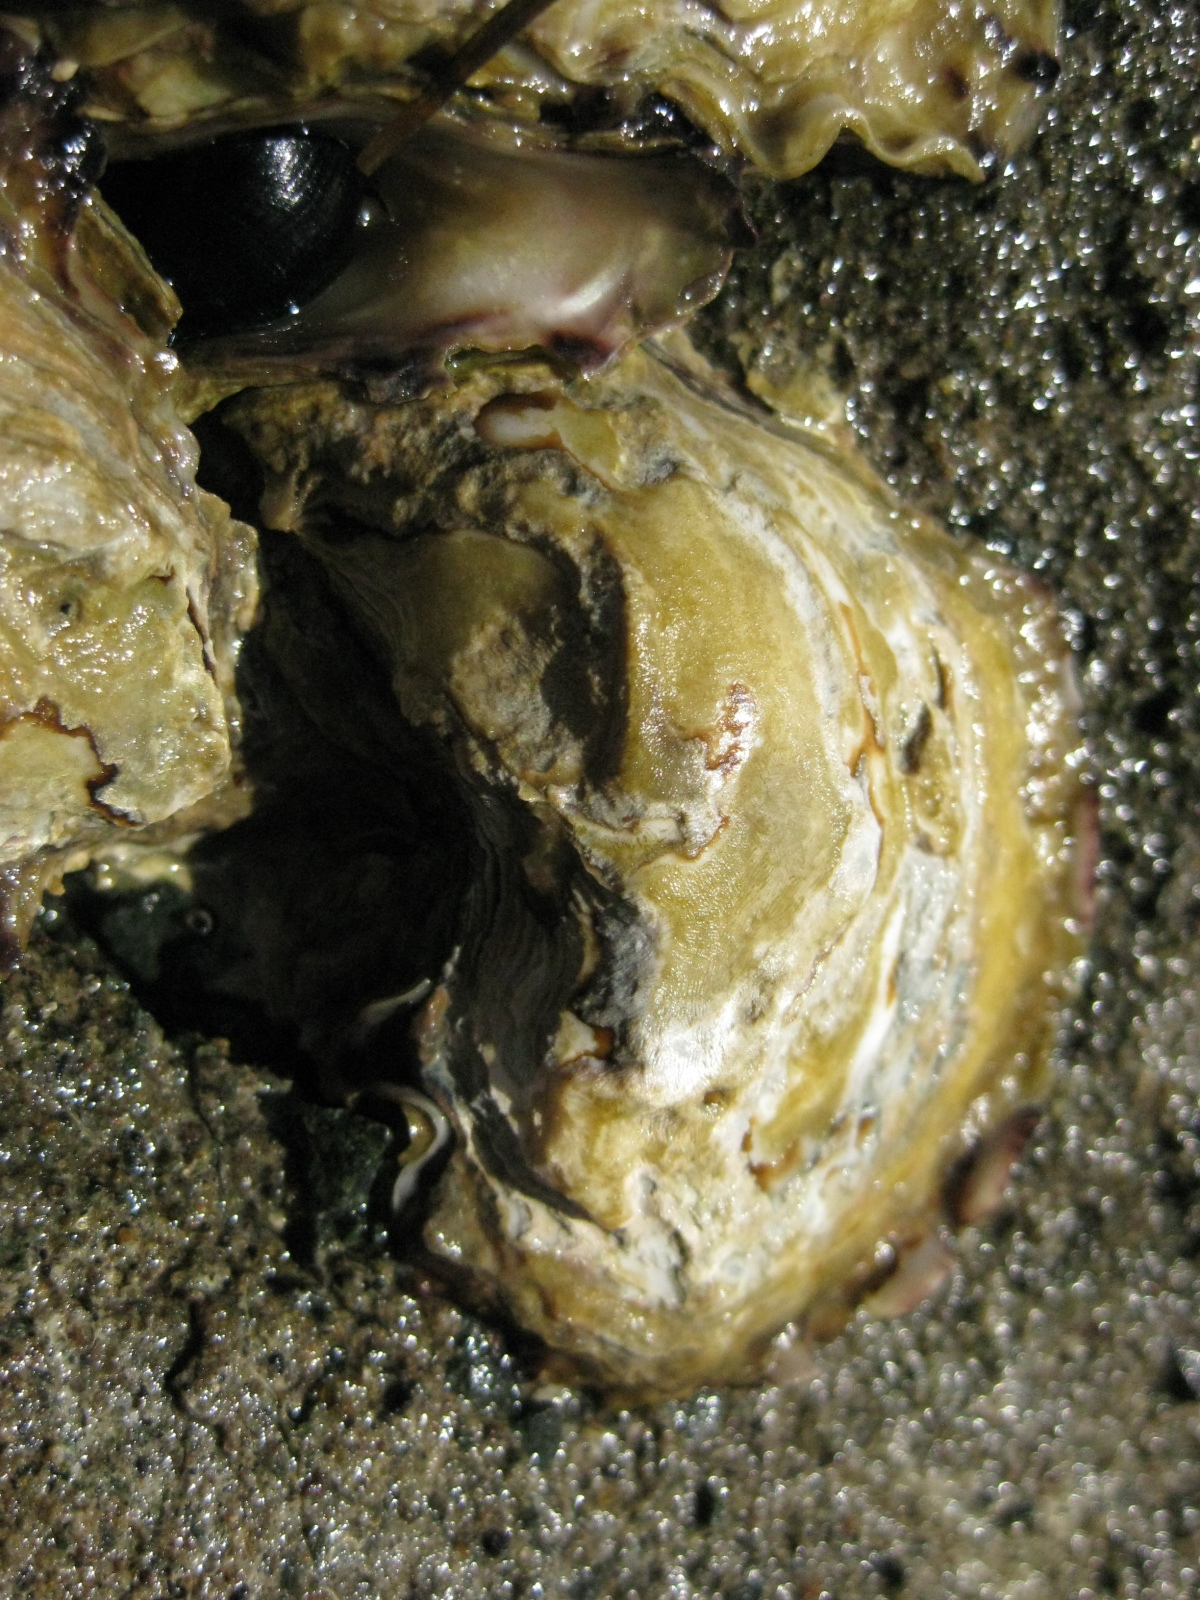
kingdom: Animalia
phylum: Mollusca
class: Bivalvia
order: Ostreida
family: Ostreidae
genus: Saccostrea
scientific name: Saccostrea glomerata
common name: Sydney cupped oyster
